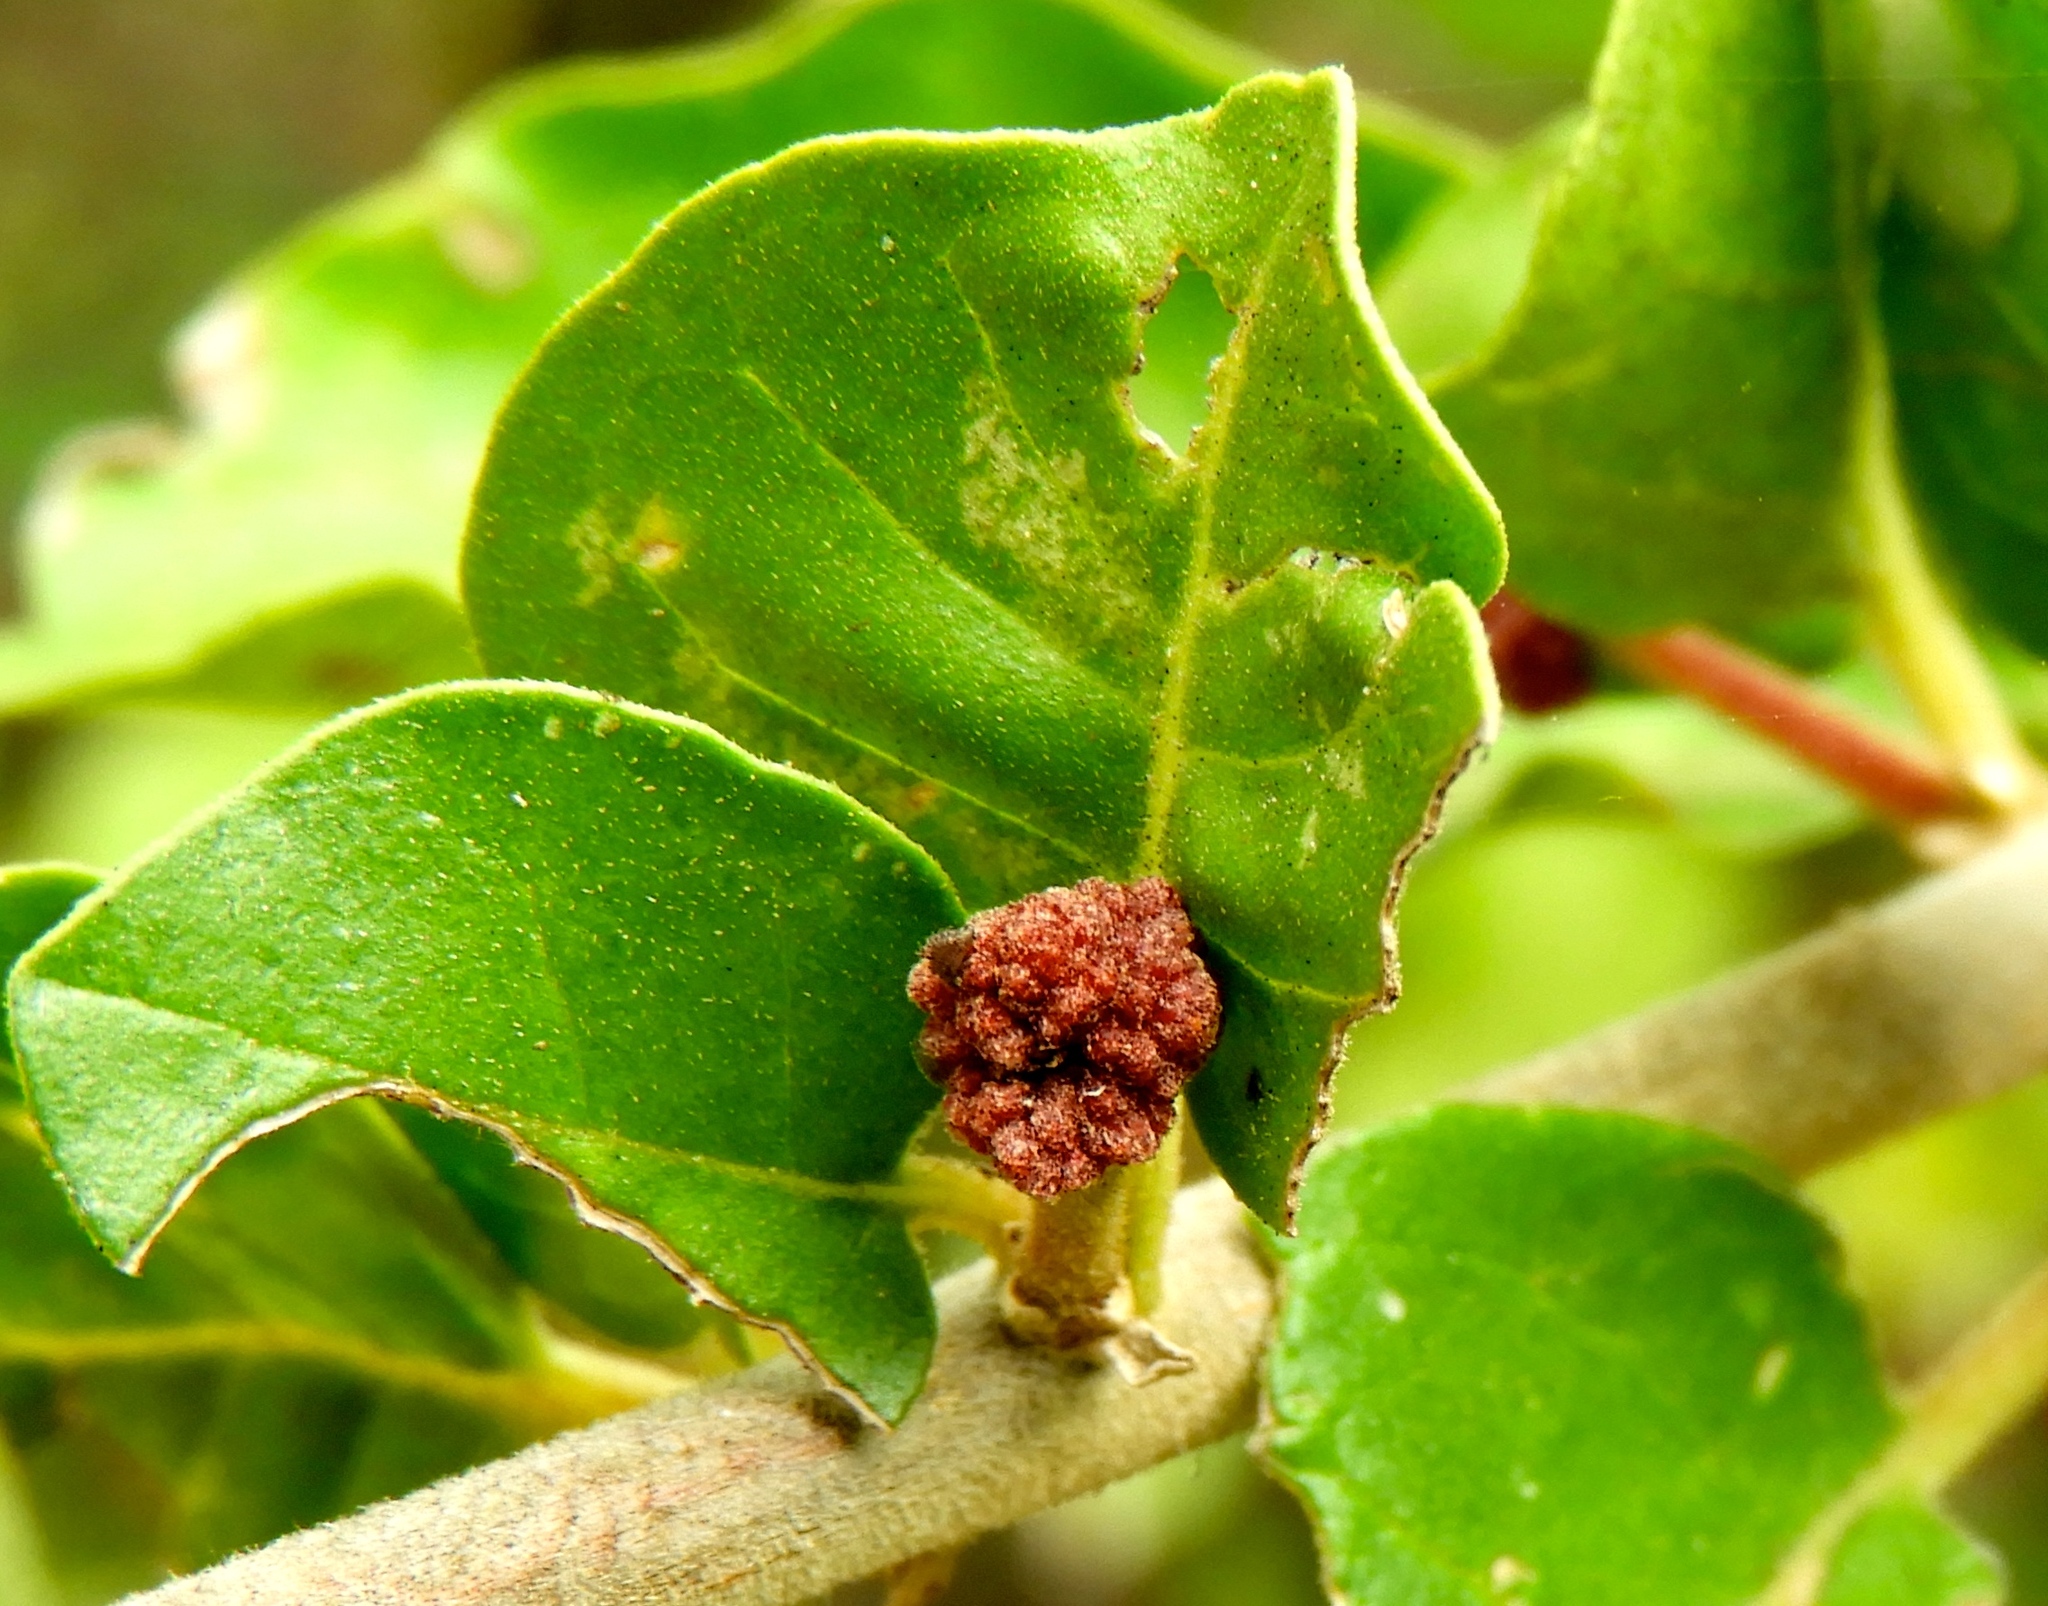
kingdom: Plantae
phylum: Tracheophyta
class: Magnoliopsida
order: Caryophyllales
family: Nyctaginaceae
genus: Pisonia
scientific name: Pisonia capitata
